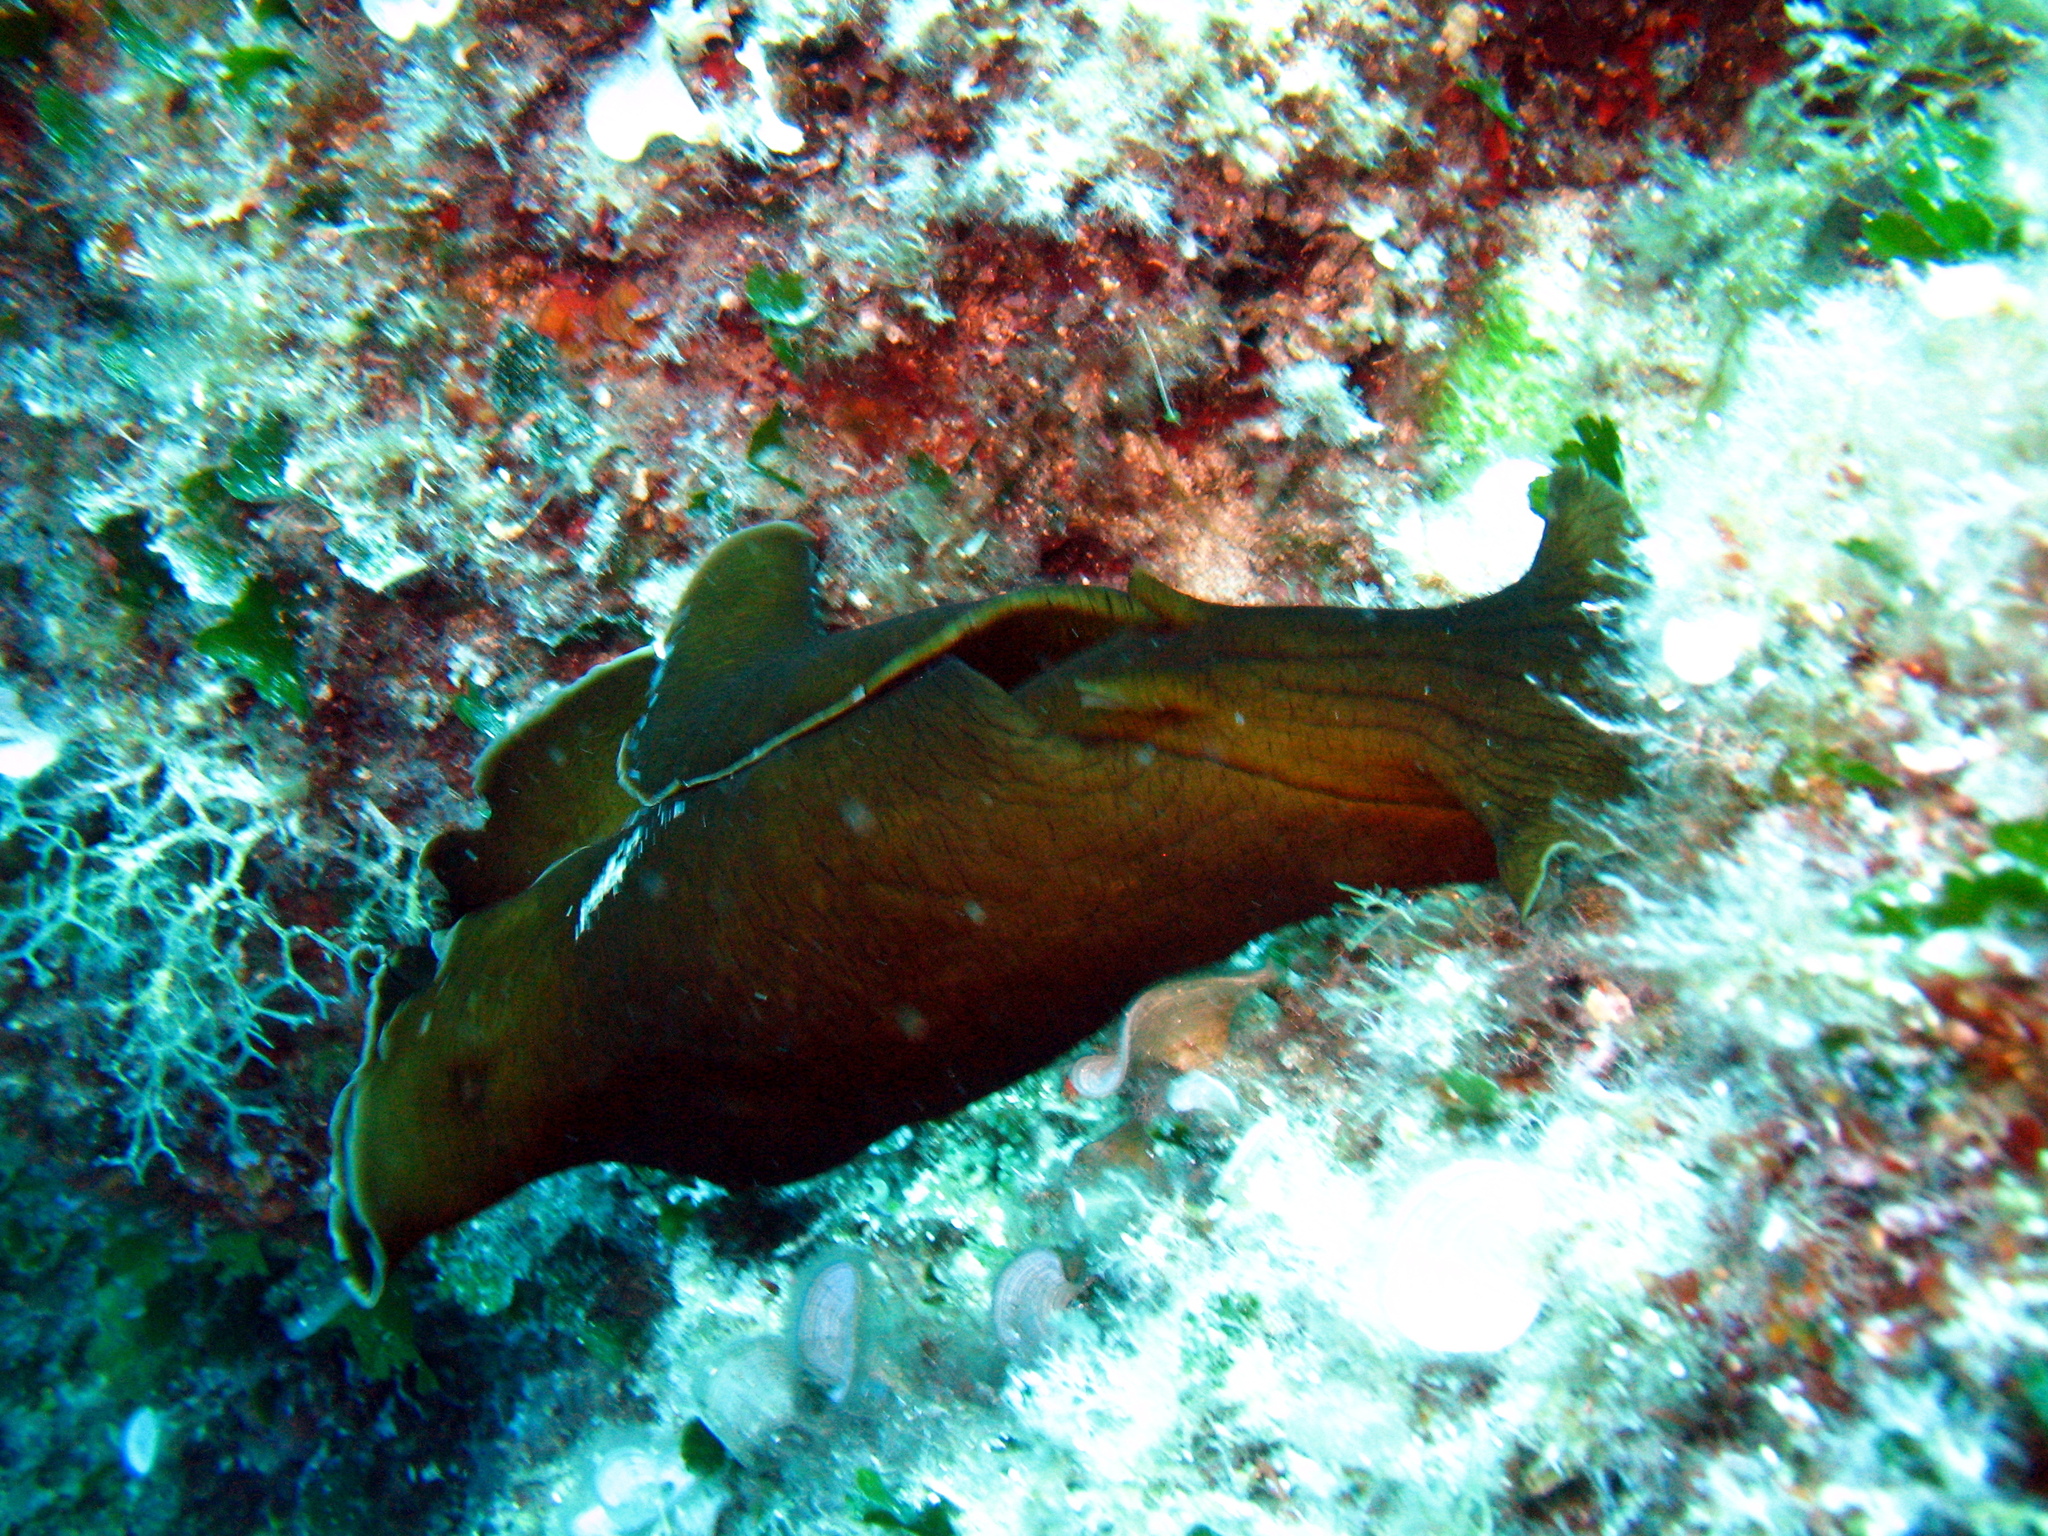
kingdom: Animalia
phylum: Mollusca
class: Gastropoda
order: Aplysiida
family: Aplysiidae
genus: Aplysia
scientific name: Aplysia fasciata
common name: Banded sea hare
